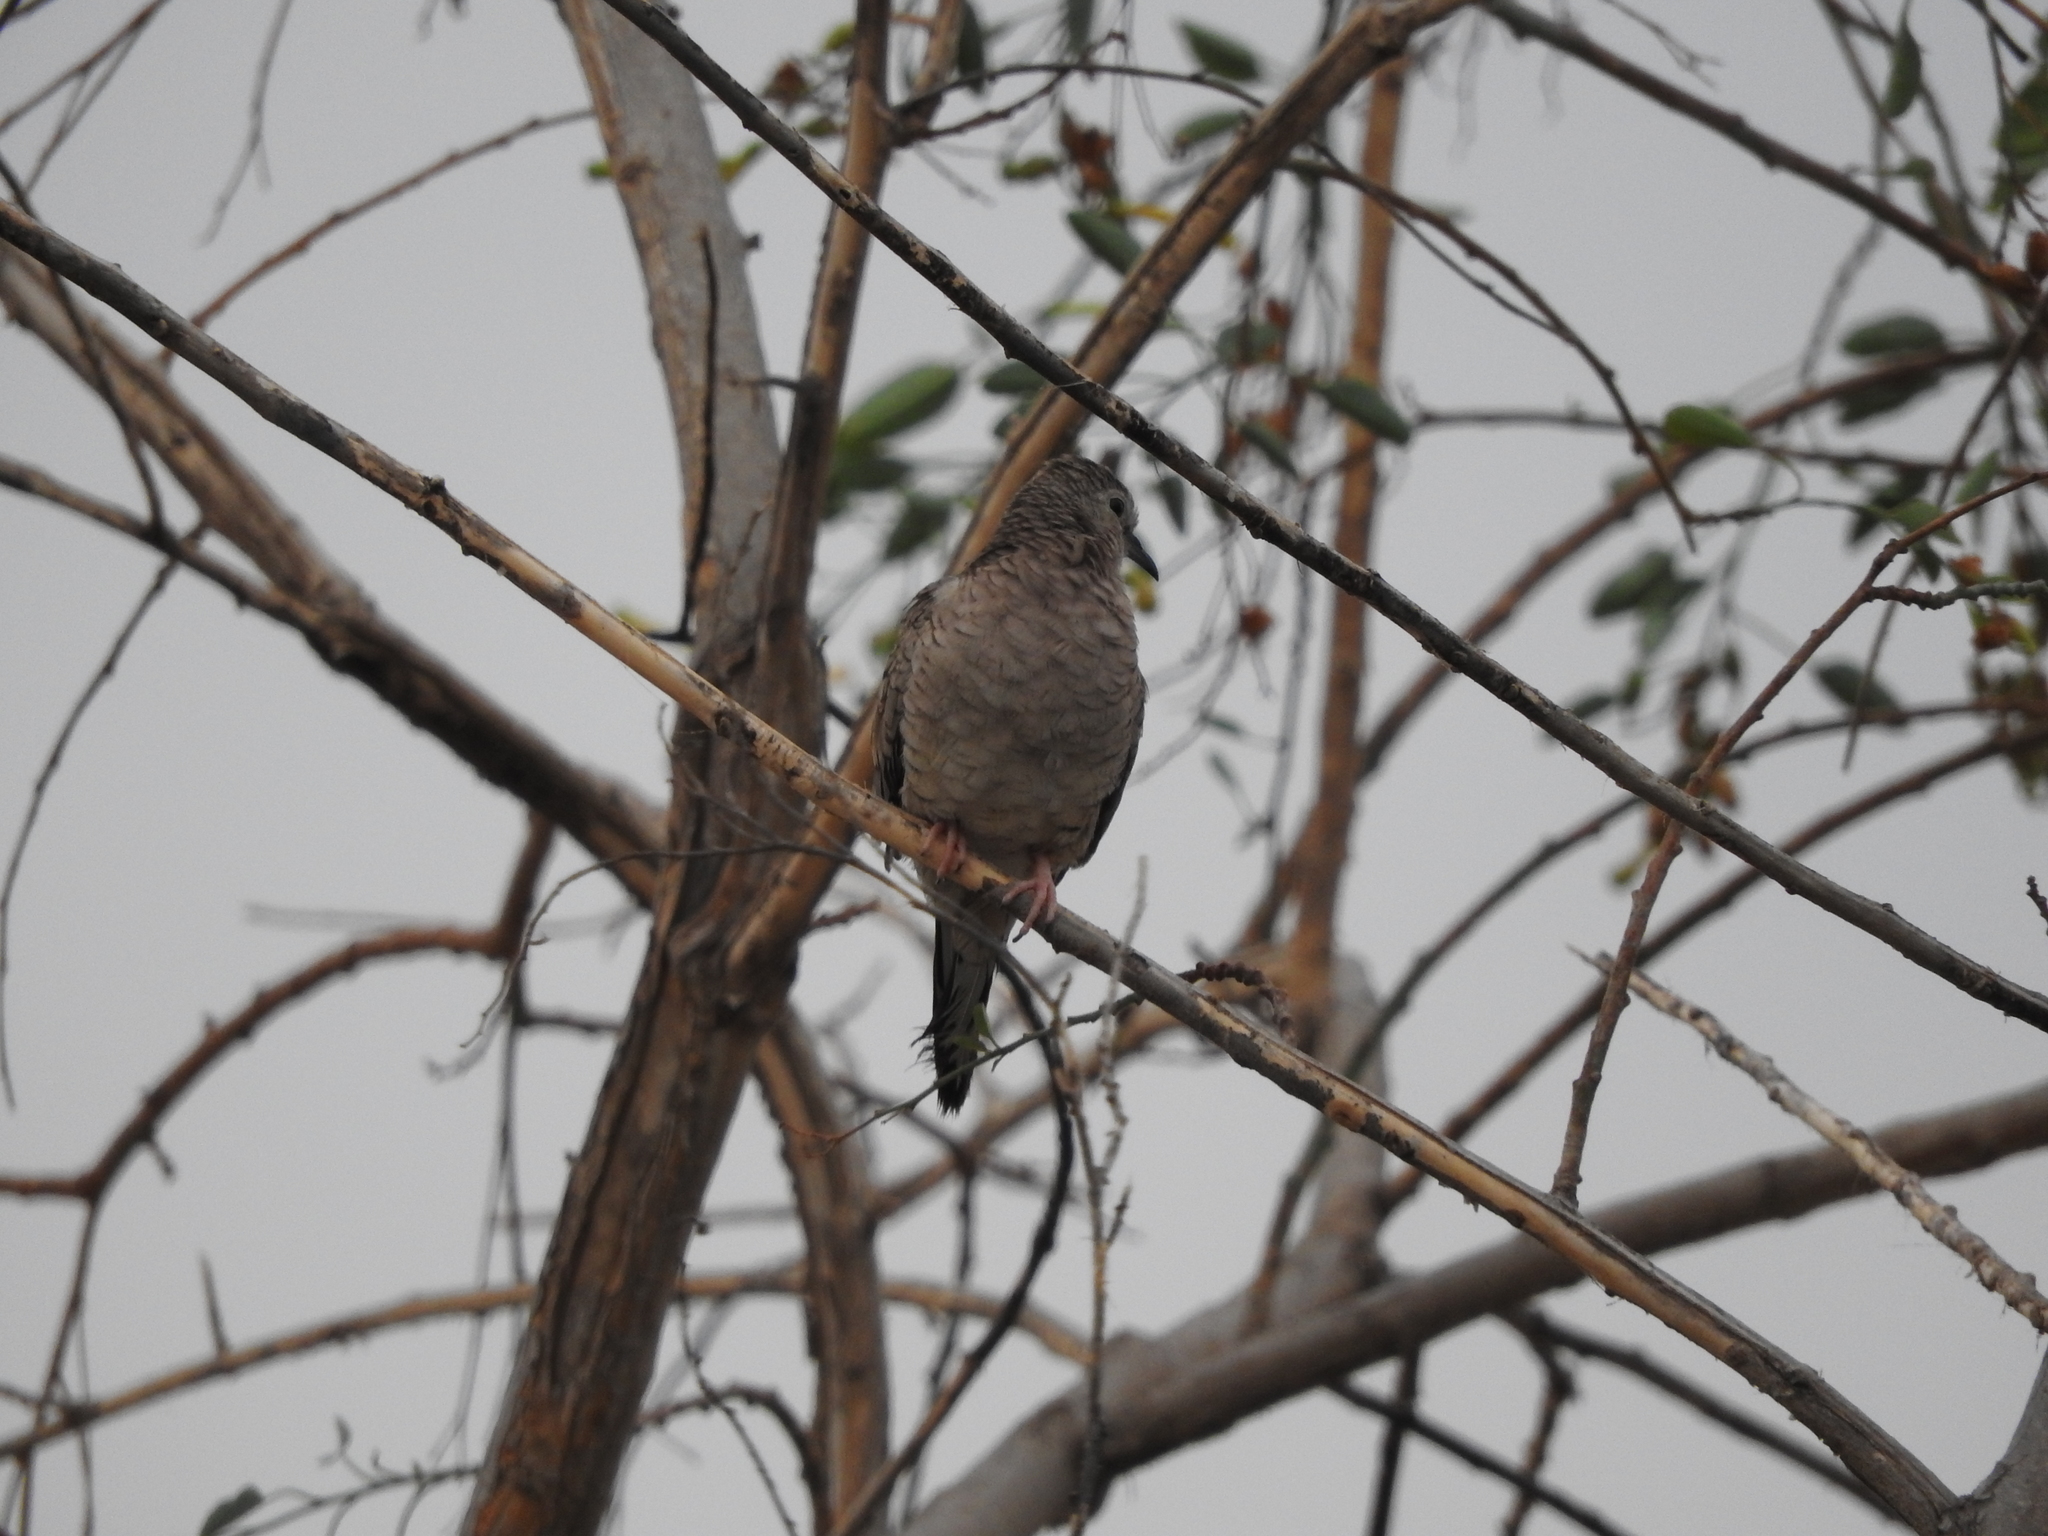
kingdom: Animalia
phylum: Chordata
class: Aves
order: Columbiformes
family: Columbidae
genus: Columbina
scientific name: Columbina inca
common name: Inca dove
